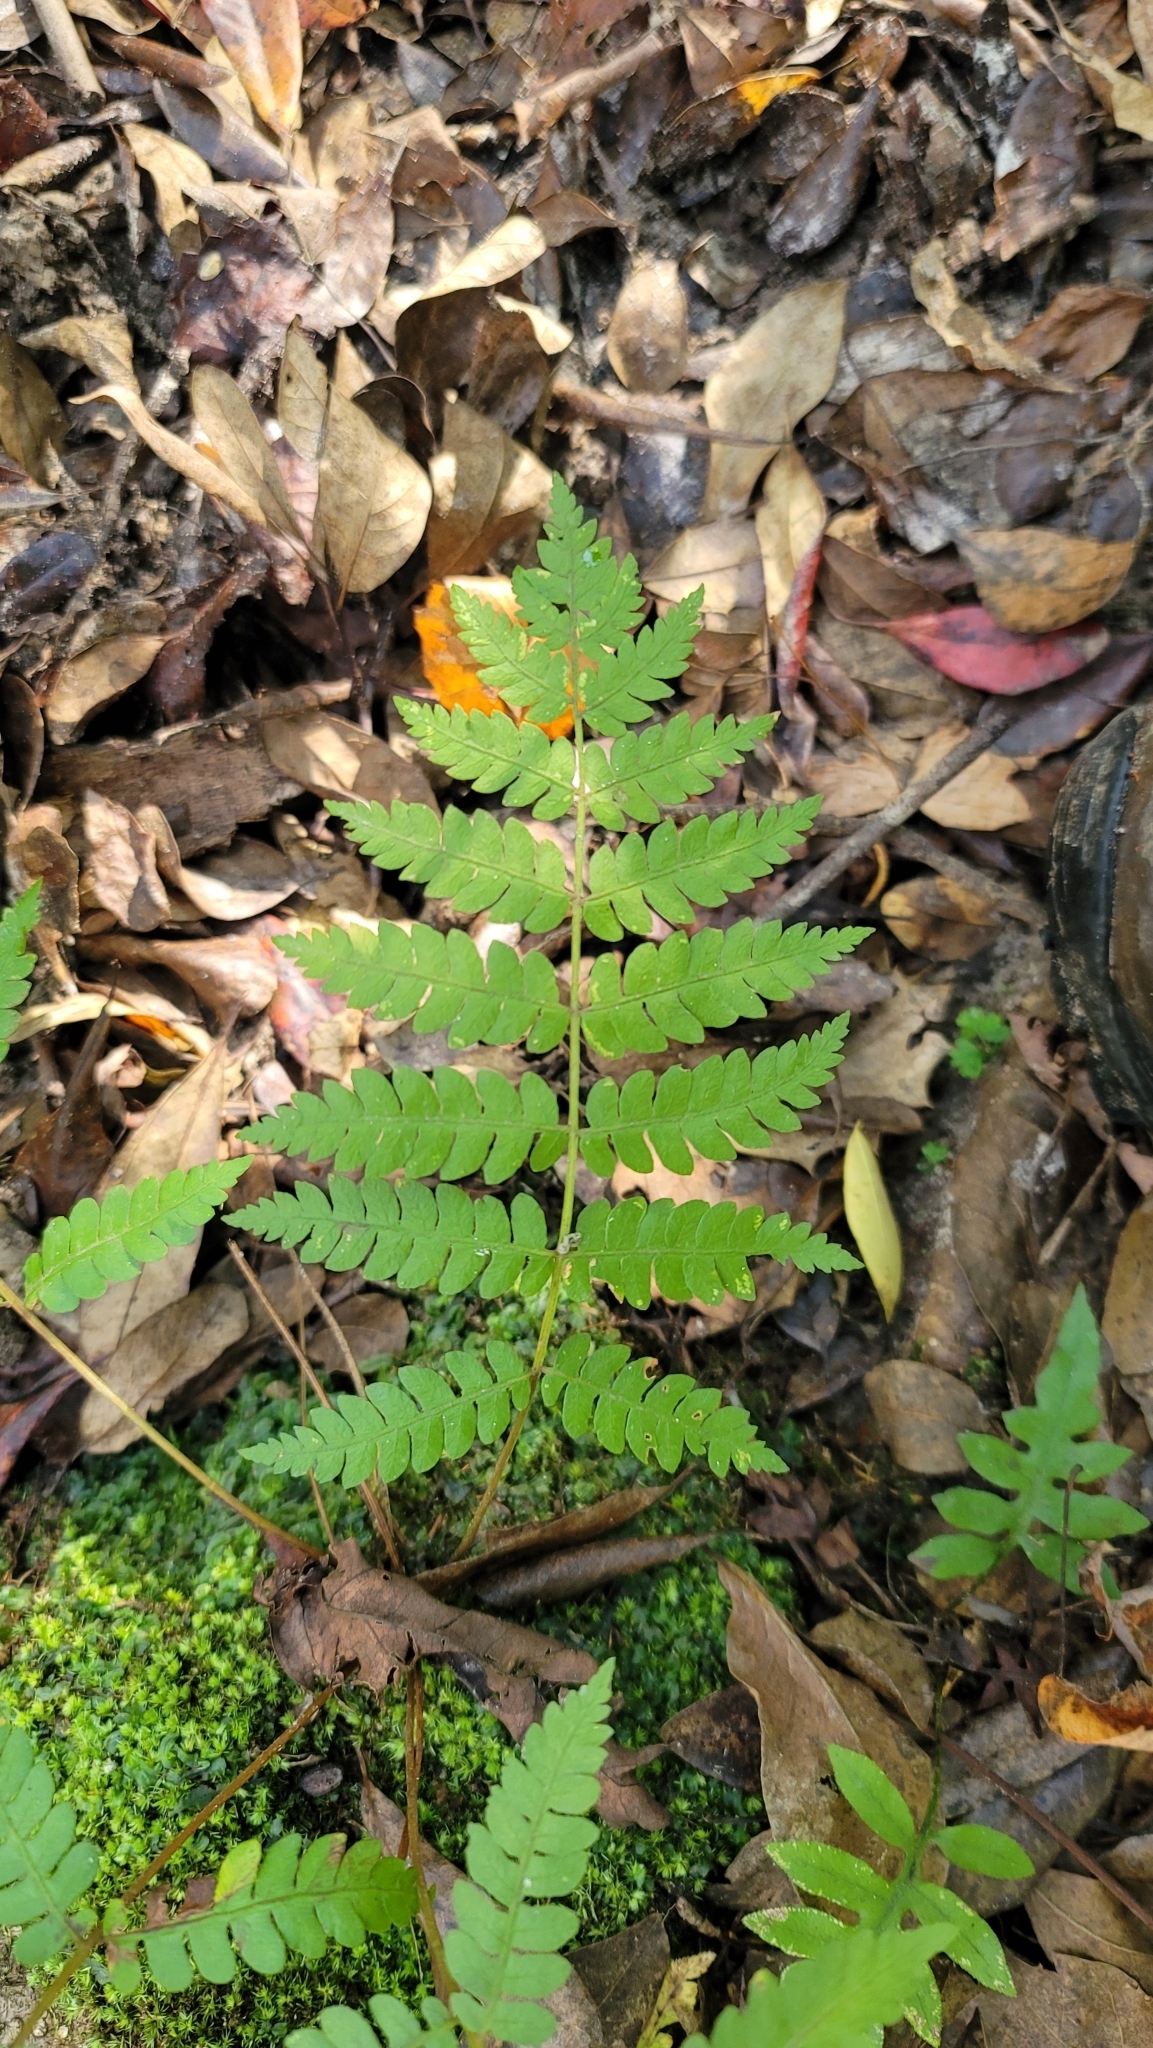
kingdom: Plantae
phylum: Tracheophyta
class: Polypodiopsida
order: Osmundales
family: Osmundaceae
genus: Osmundastrum
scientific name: Osmundastrum cinnamomeum
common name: Cinnamon fern
